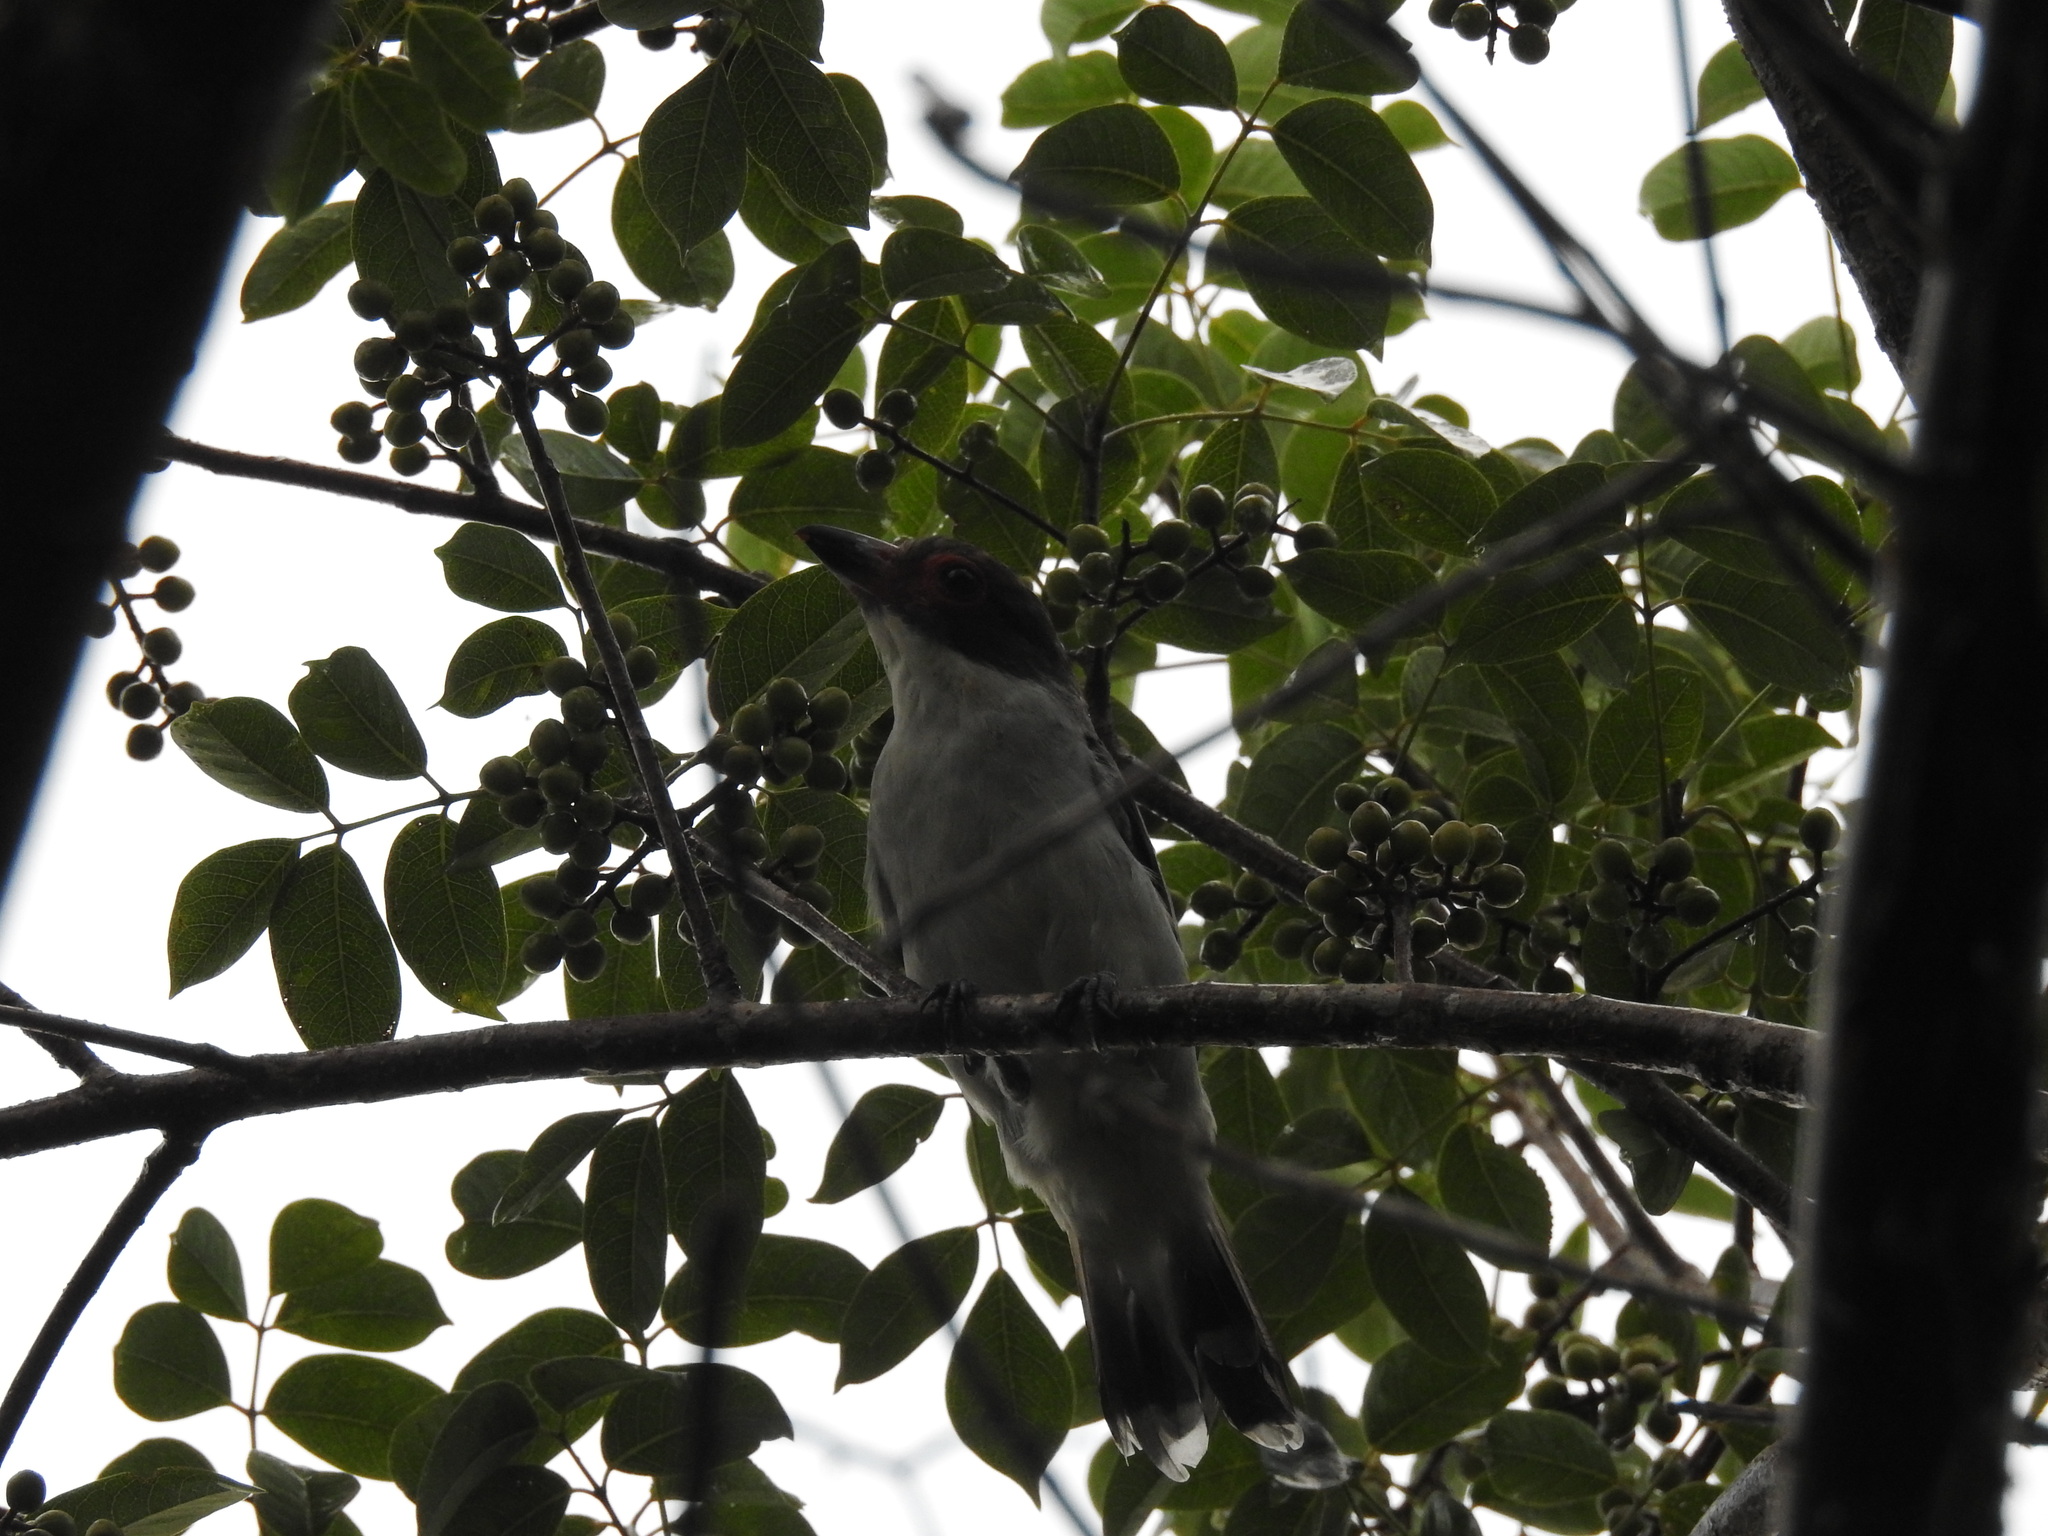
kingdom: Animalia
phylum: Chordata
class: Aves
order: Passeriformes
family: Cotingidae
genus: Tityra
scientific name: Tityra semifasciata
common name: Masked tityra
